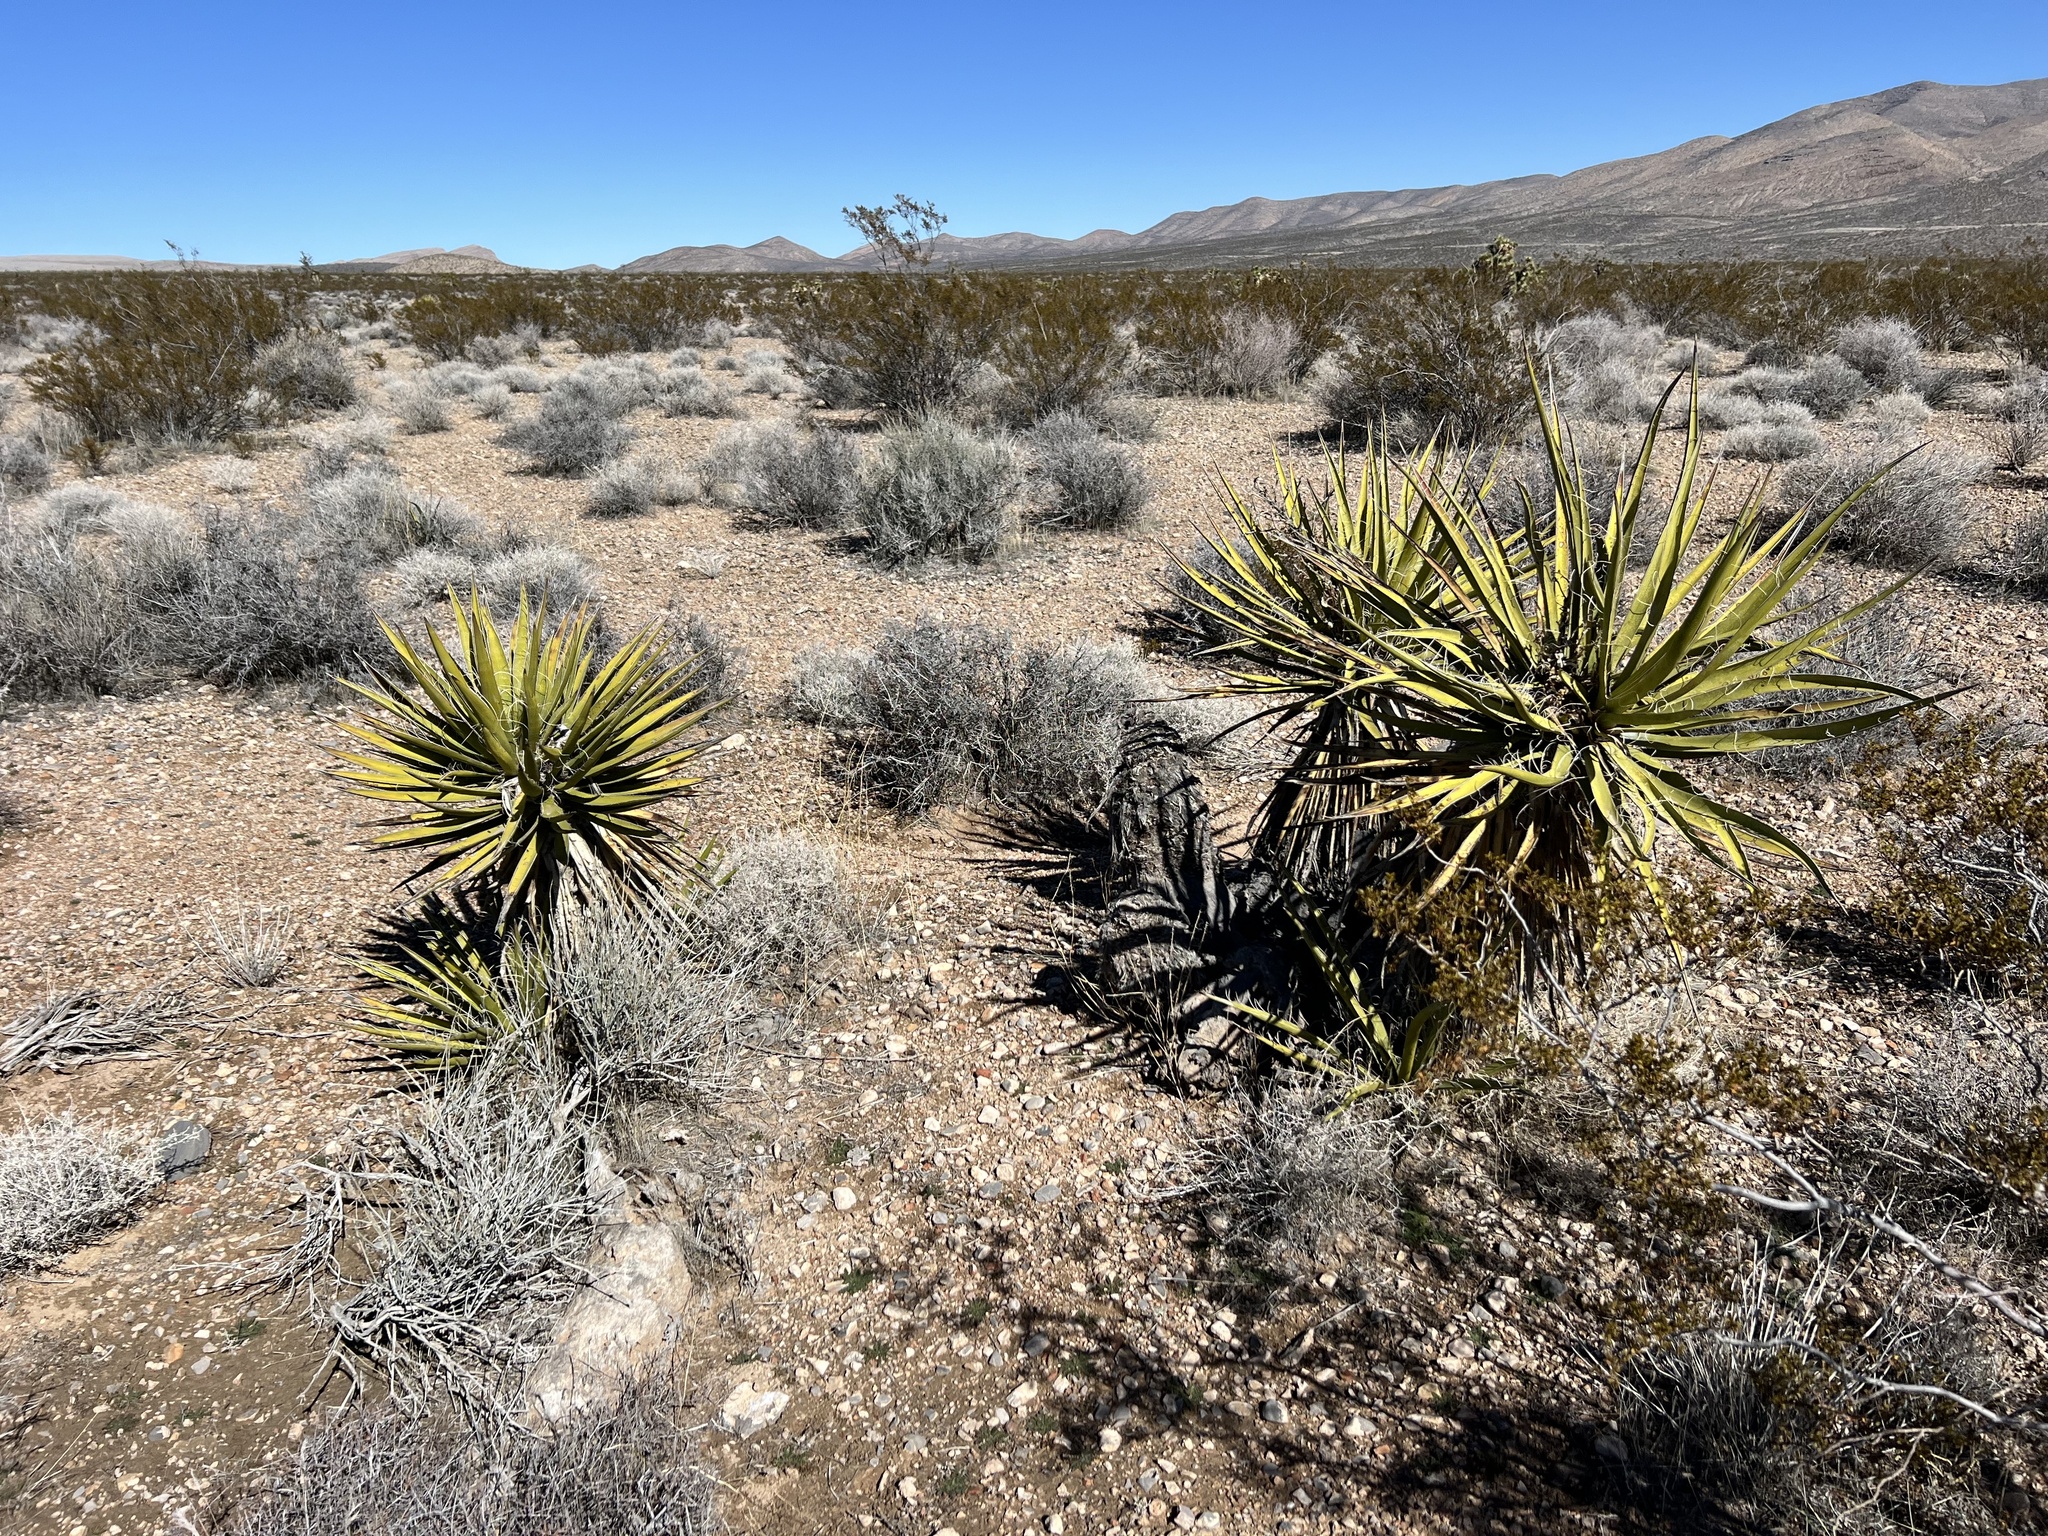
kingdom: Plantae
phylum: Tracheophyta
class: Liliopsida
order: Asparagales
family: Asparagaceae
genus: Yucca
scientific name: Yucca schidigera
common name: Mojave yucca
